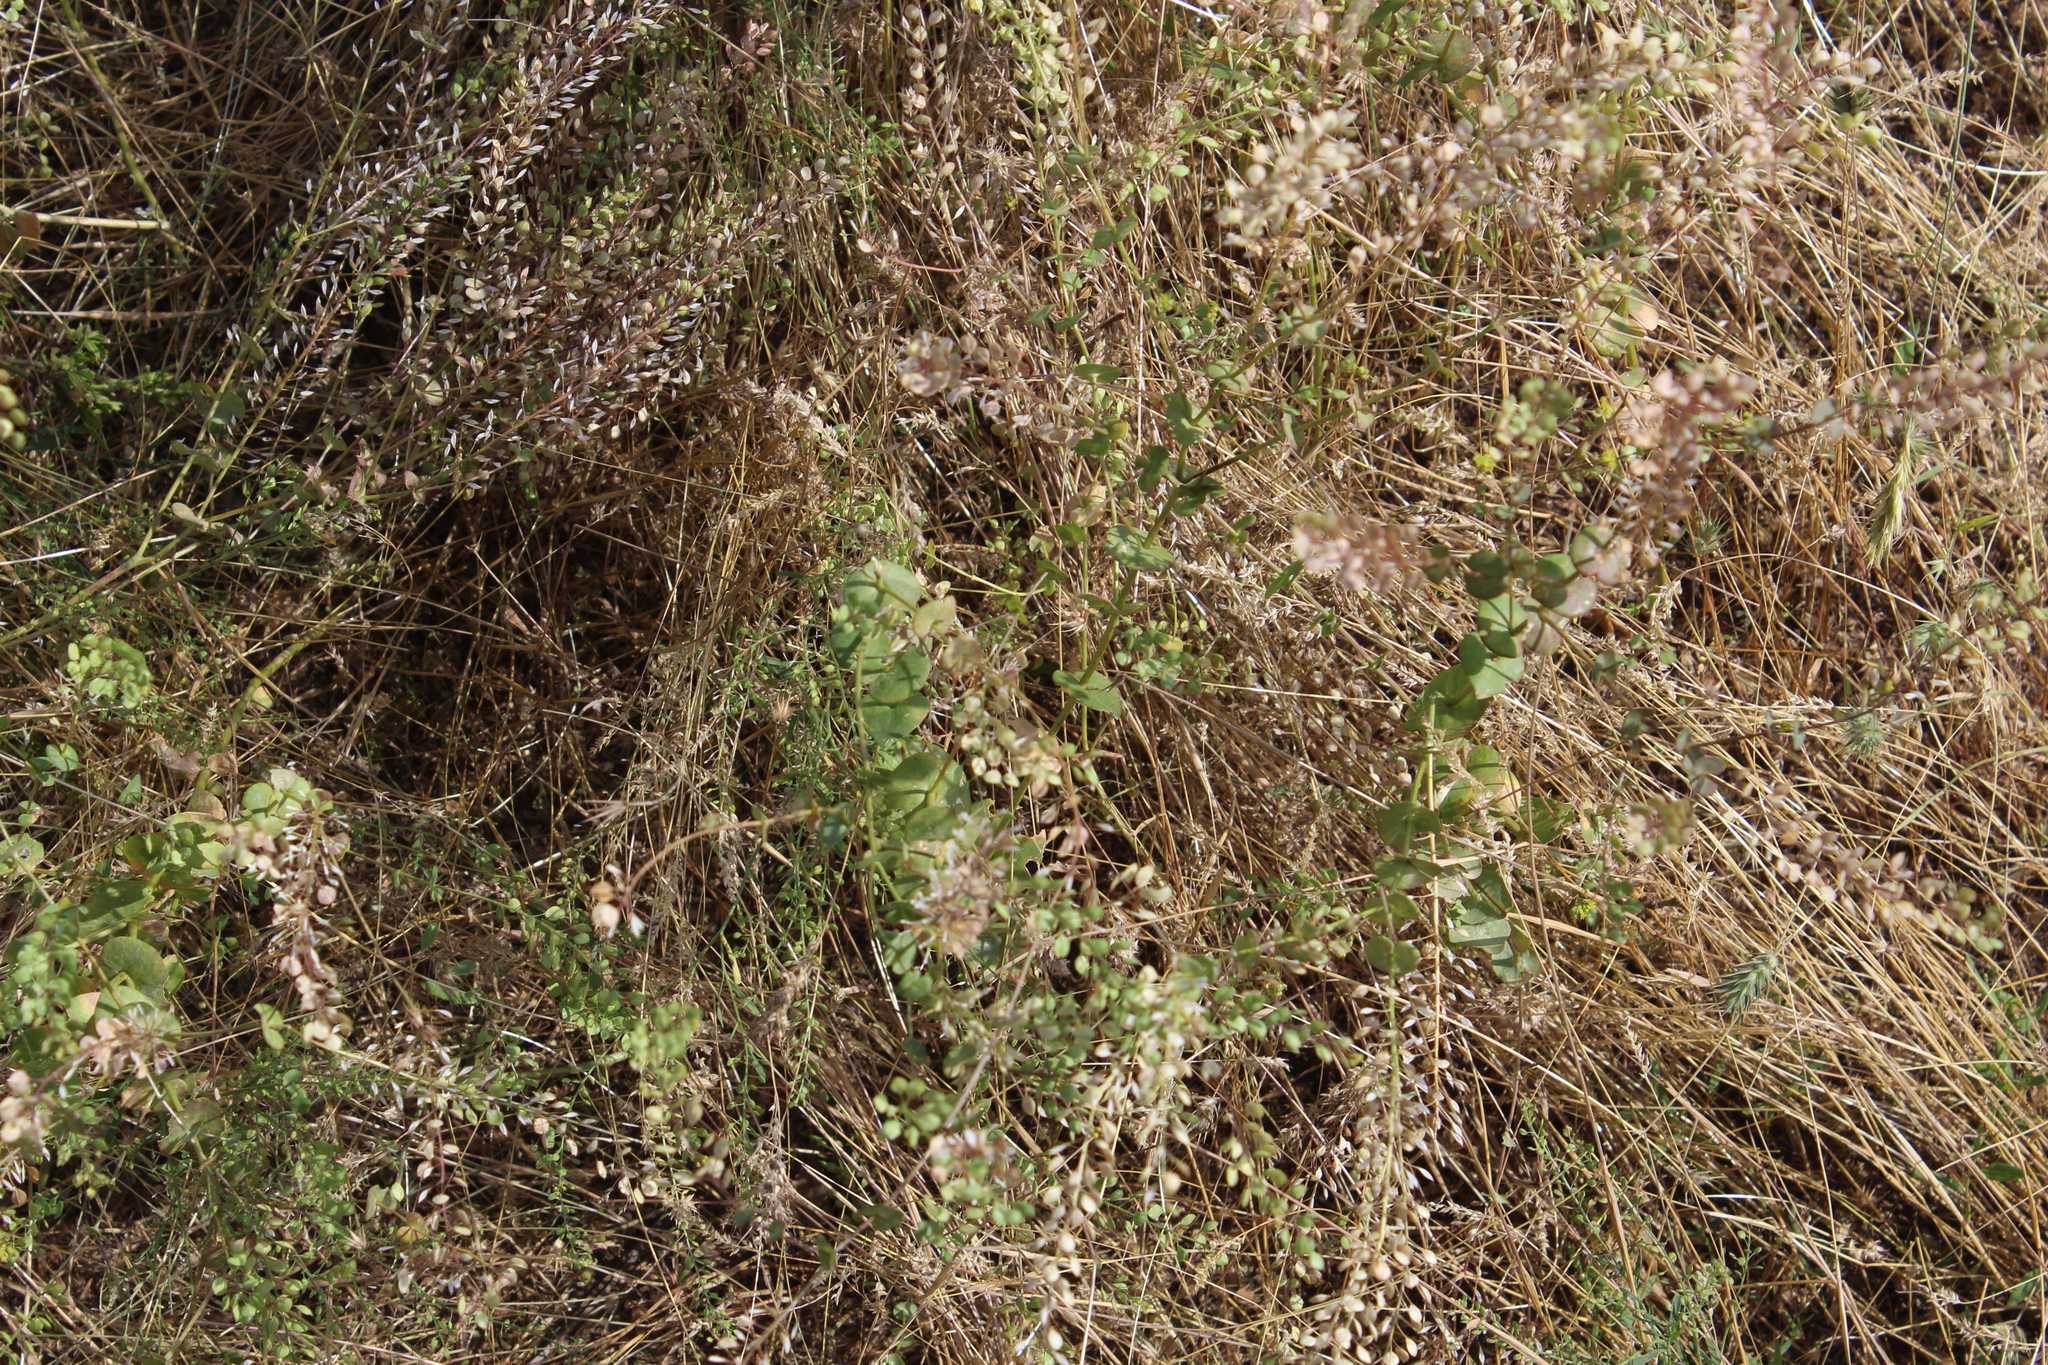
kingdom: Plantae
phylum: Tracheophyta
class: Magnoliopsida
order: Brassicales
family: Brassicaceae
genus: Lepidium
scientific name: Lepidium perfoliatum
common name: Perfoliate pepperwort
